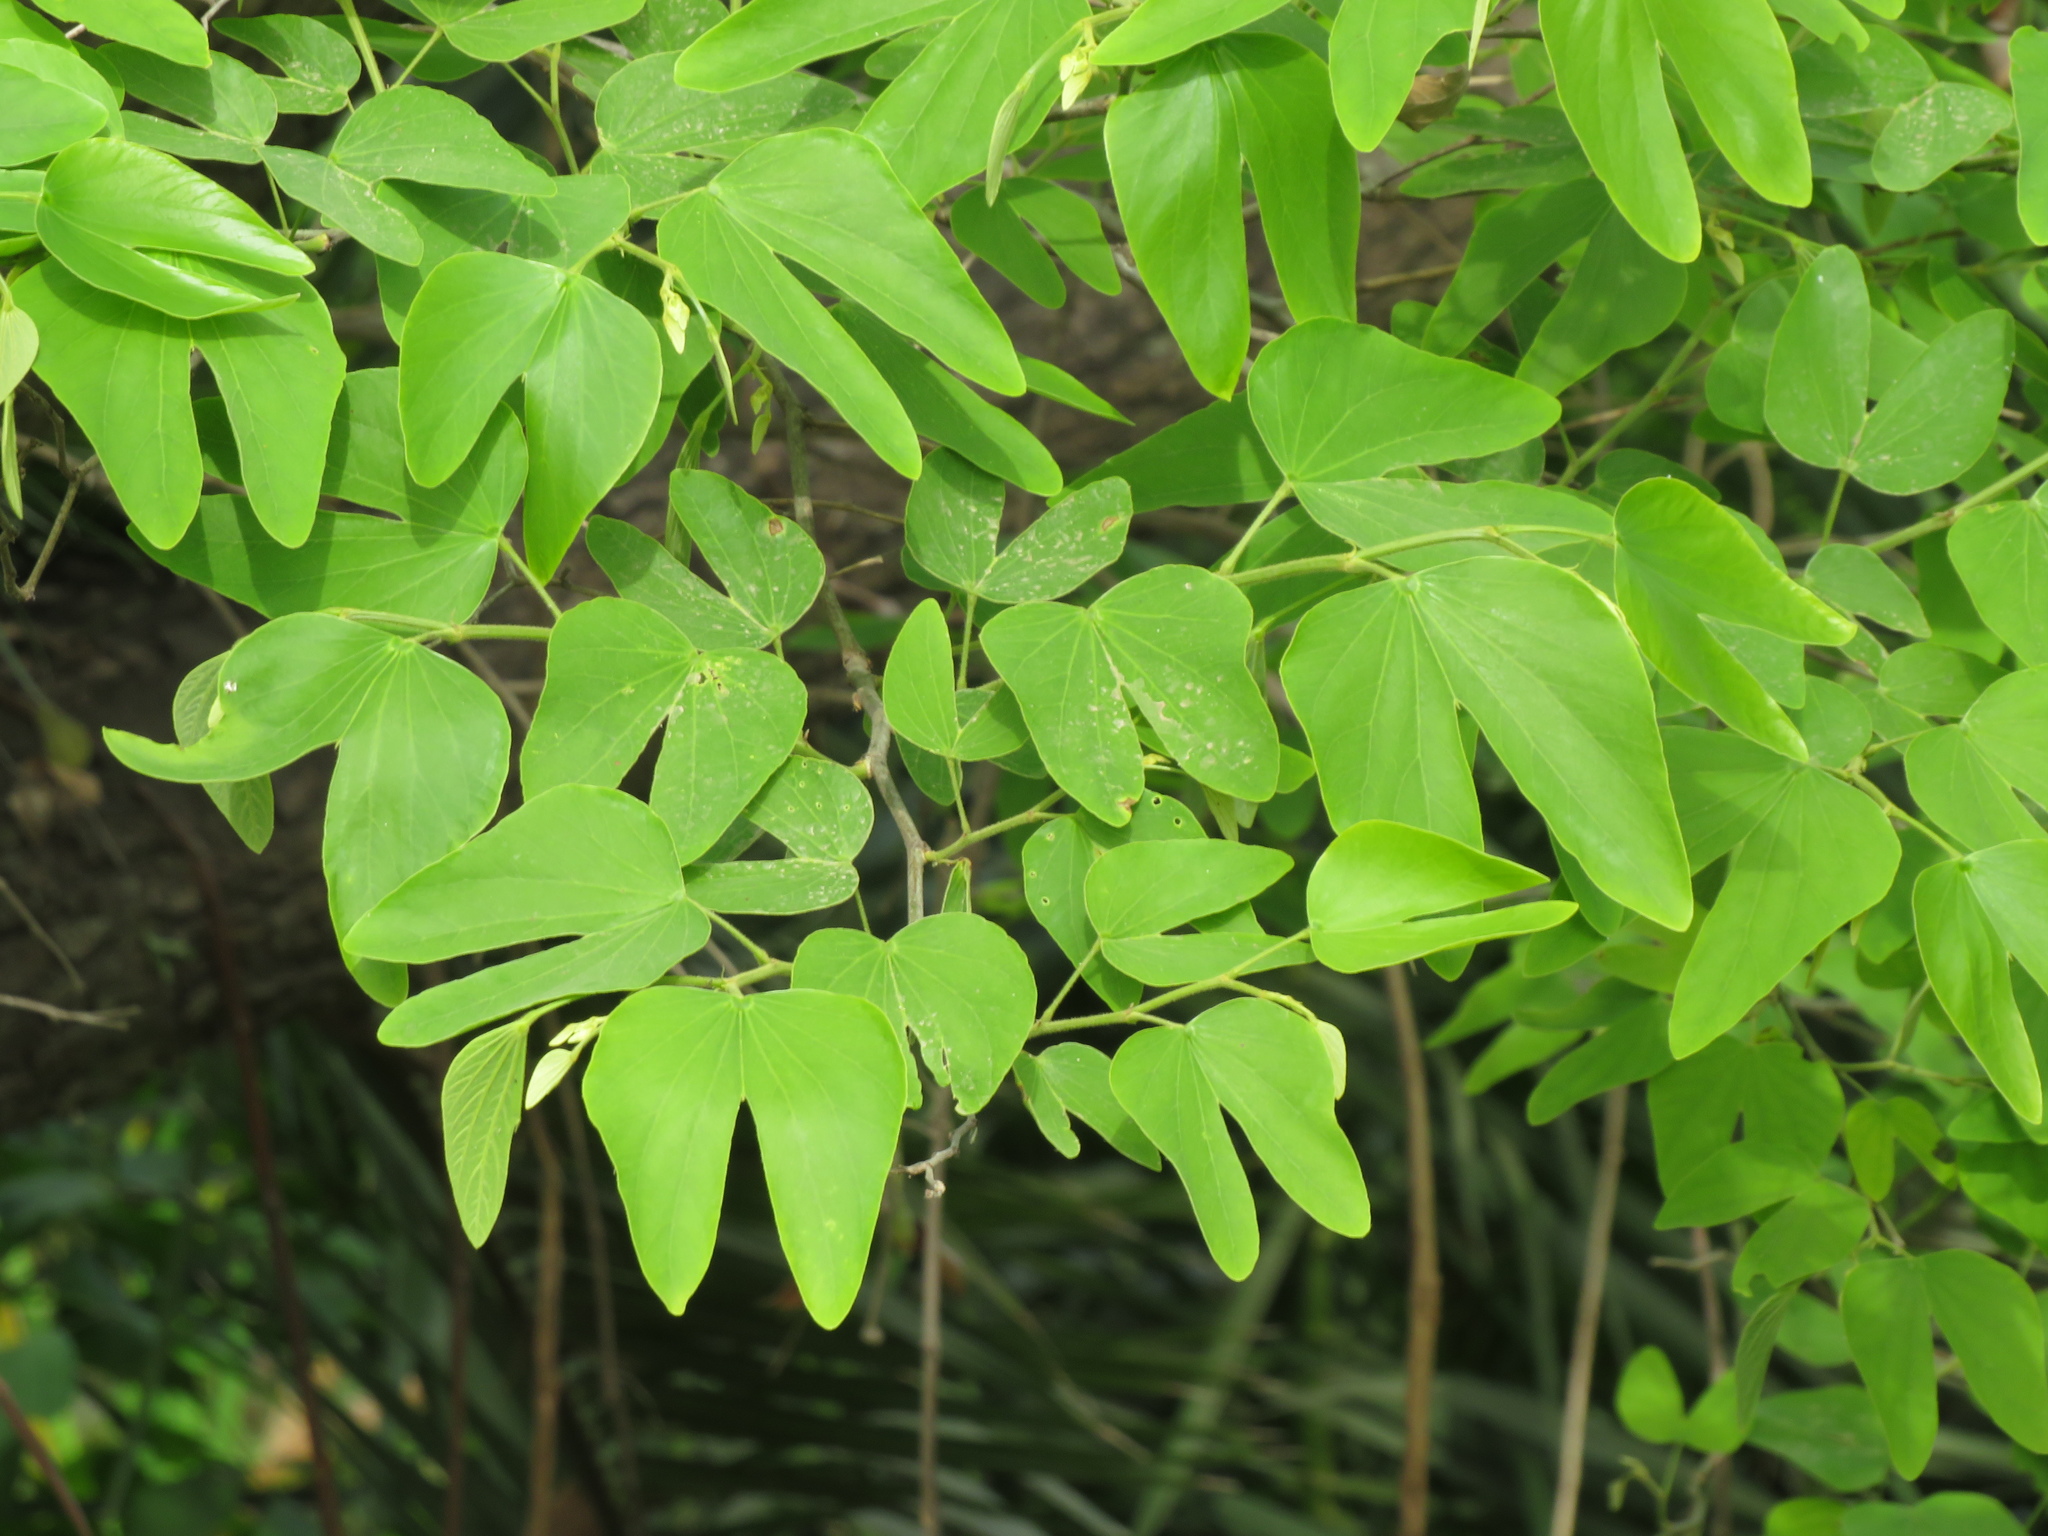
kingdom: Plantae
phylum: Tracheophyta
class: Magnoliopsida
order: Fabales
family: Fabaceae
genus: Bauhinia
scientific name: Bauhinia forficata
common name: Orchid tree
